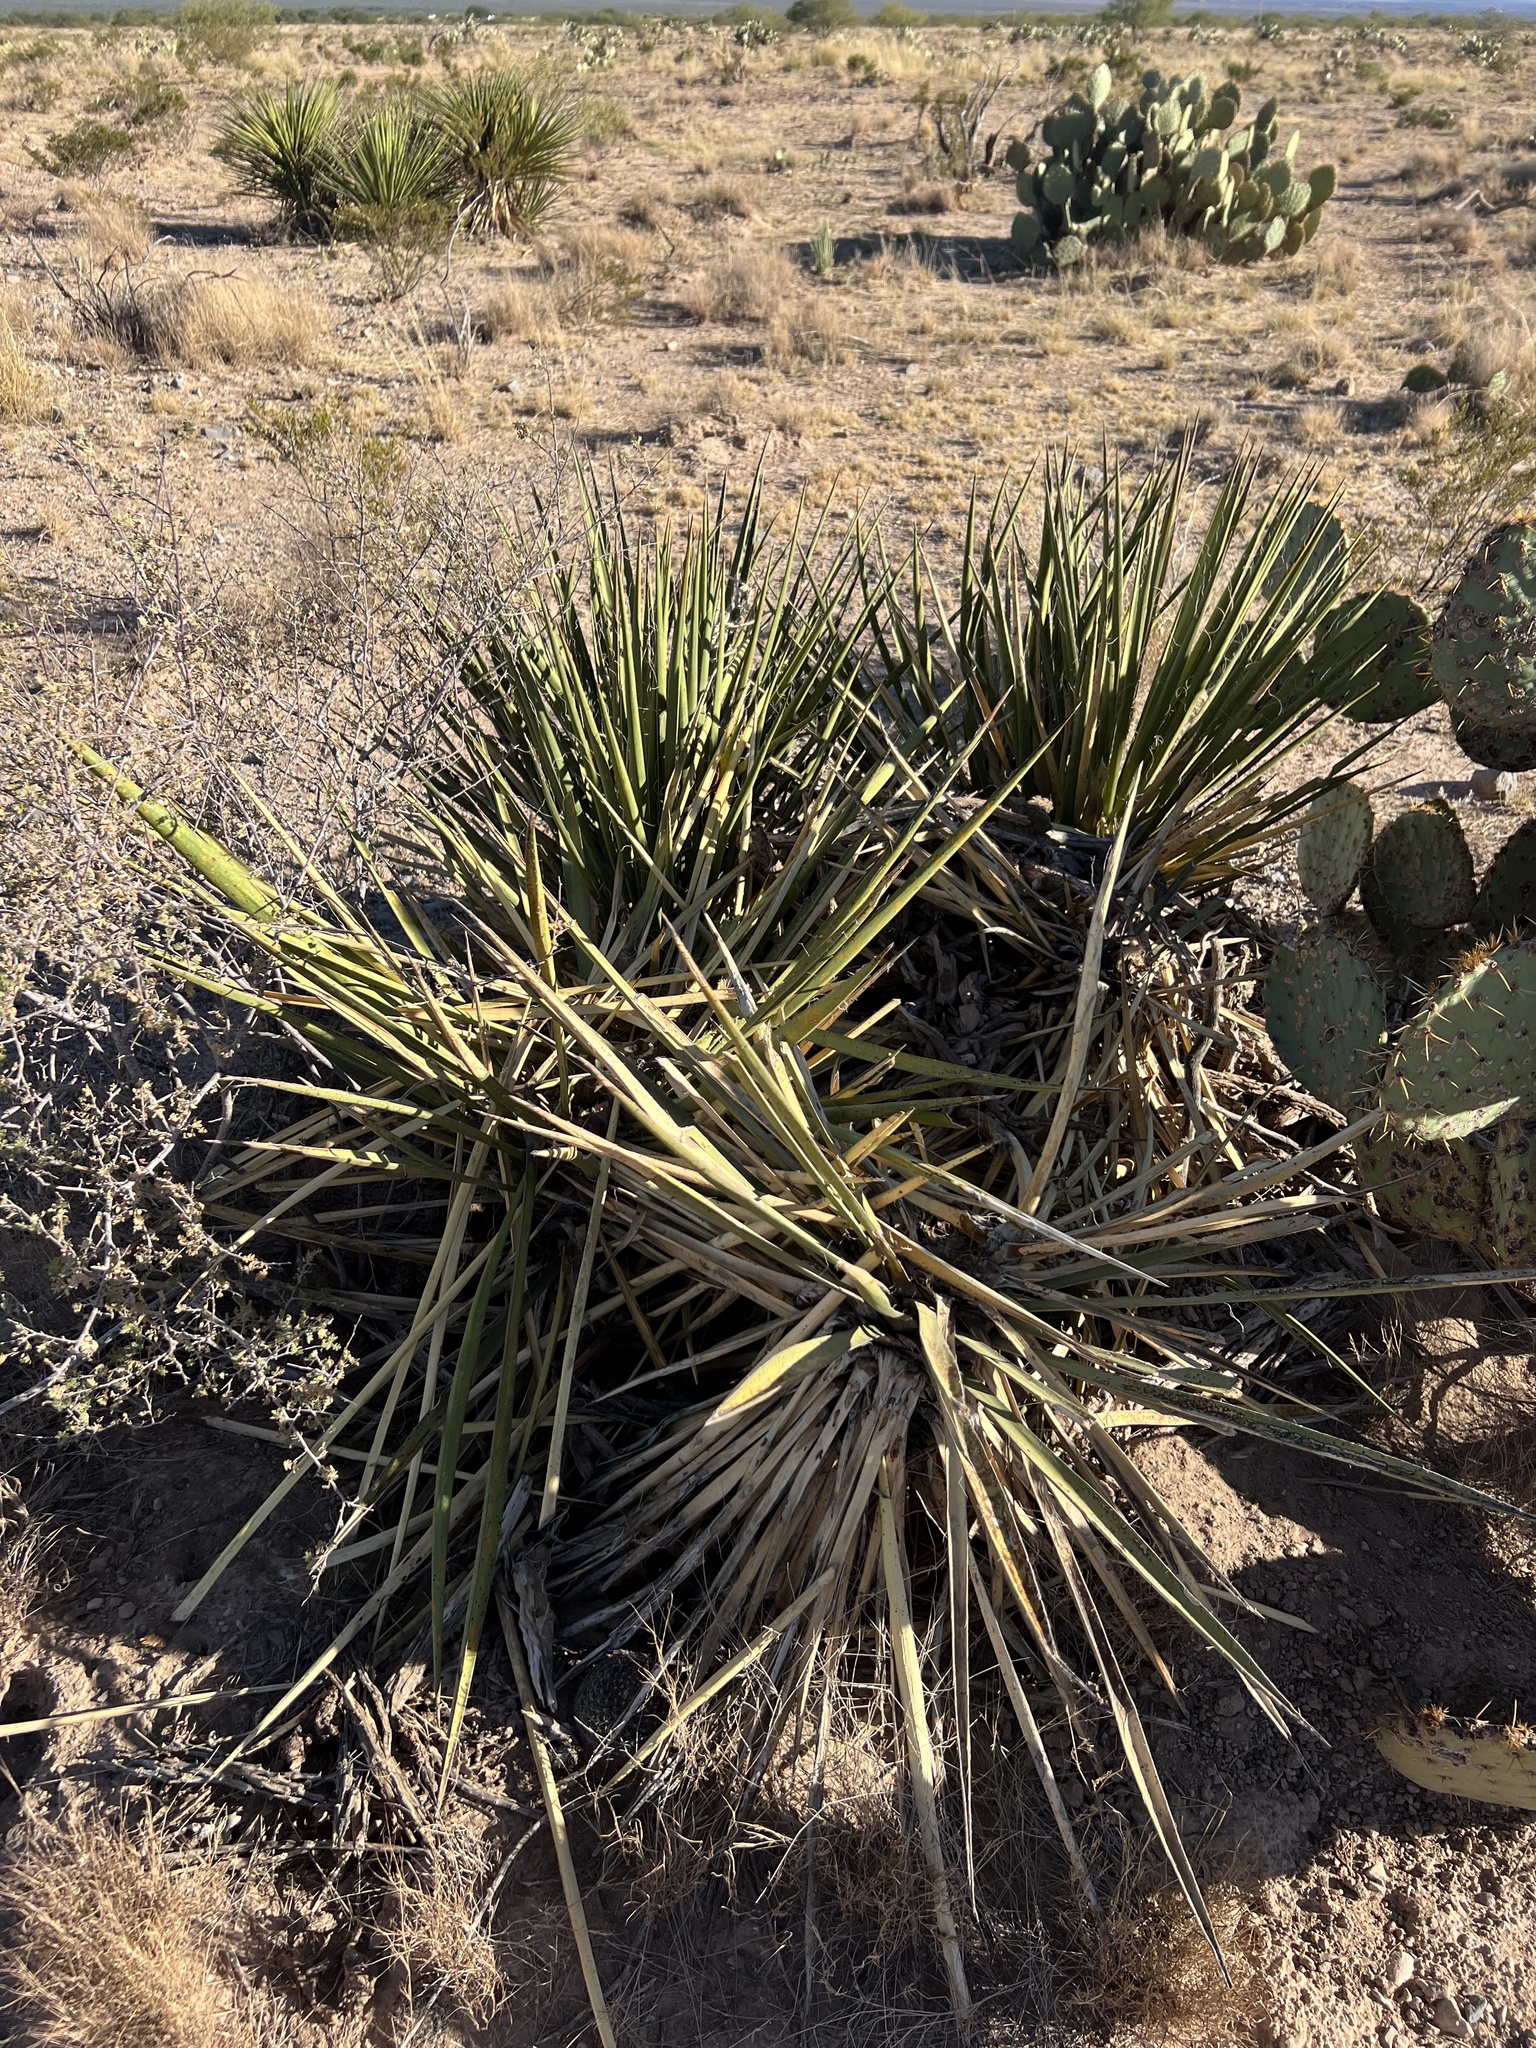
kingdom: Plantae
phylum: Tracheophyta
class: Liliopsida
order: Asparagales
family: Asparagaceae
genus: Yucca
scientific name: Yucca baccata
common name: Banana yucca
